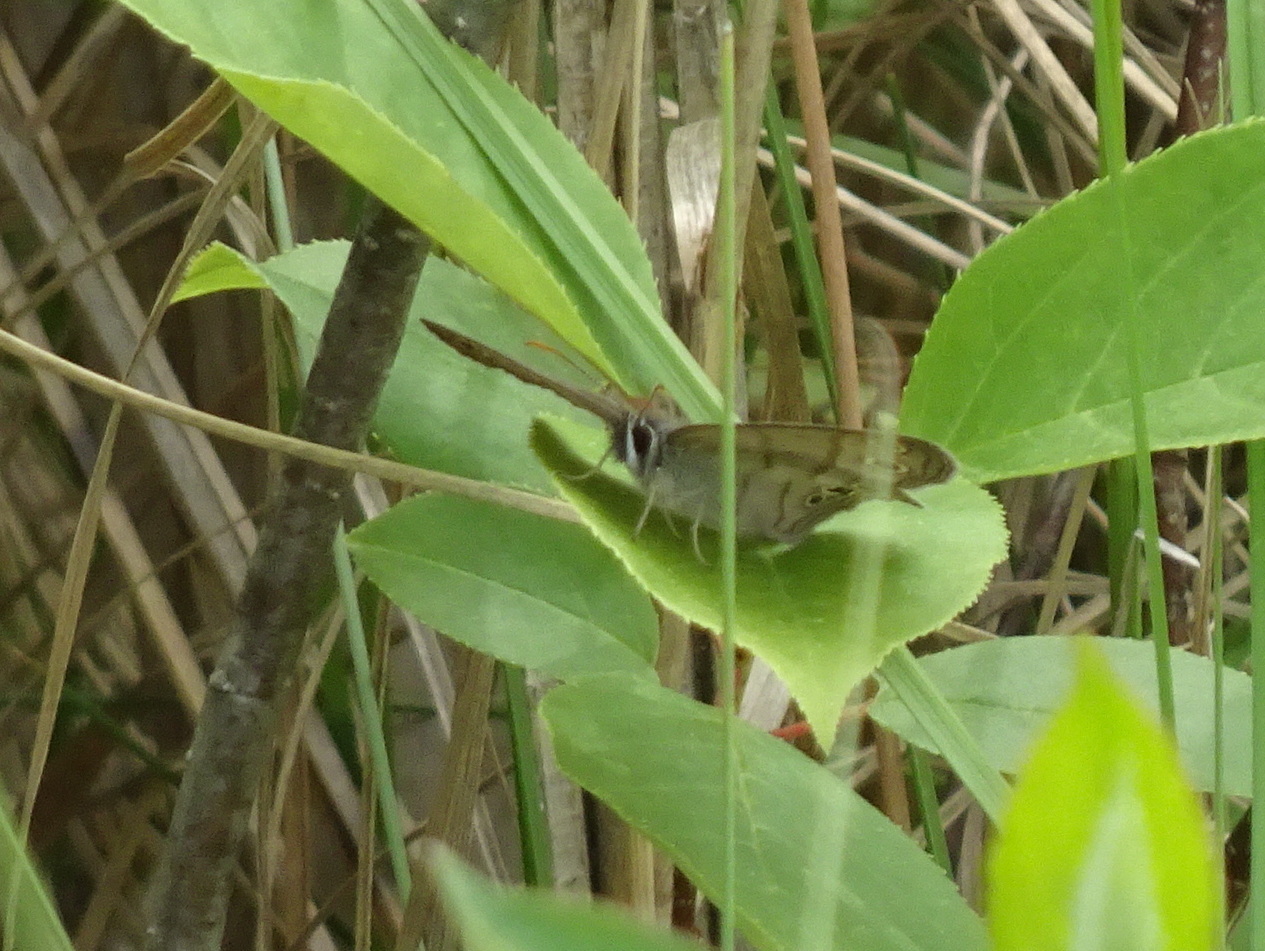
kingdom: Animalia
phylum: Arthropoda
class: Insecta
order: Lepidoptera
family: Nymphalidae
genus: Euptychia
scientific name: Euptychia cymela
